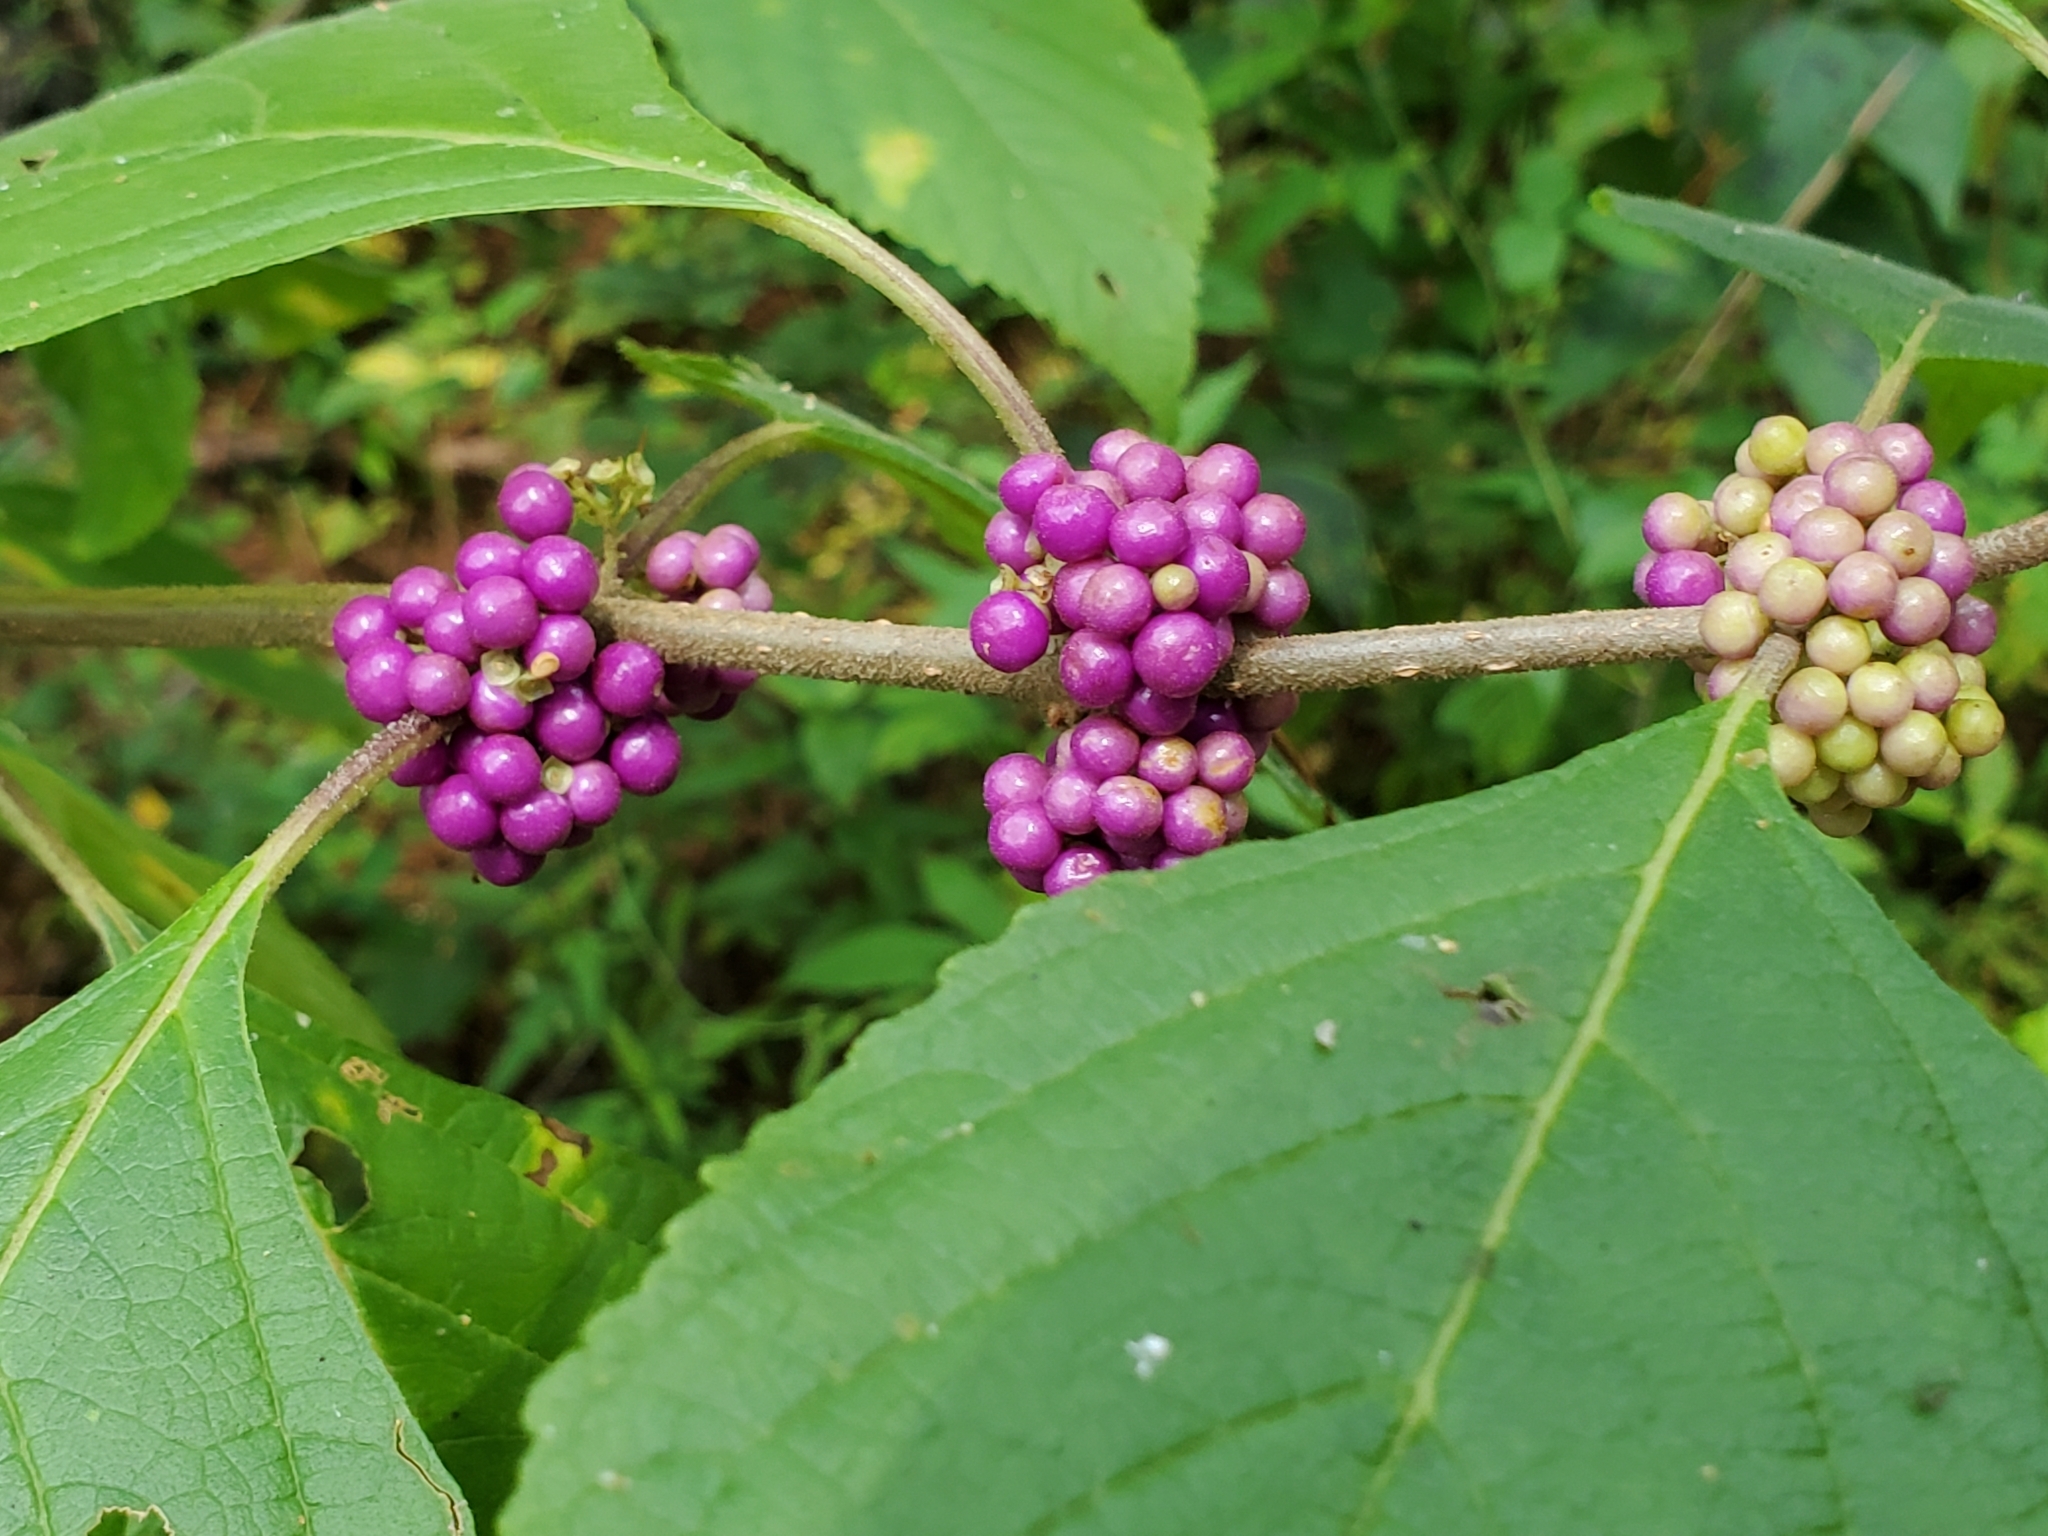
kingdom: Plantae
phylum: Tracheophyta
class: Magnoliopsida
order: Lamiales
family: Lamiaceae
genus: Callicarpa
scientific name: Callicarpa americana
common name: American beautyberry
